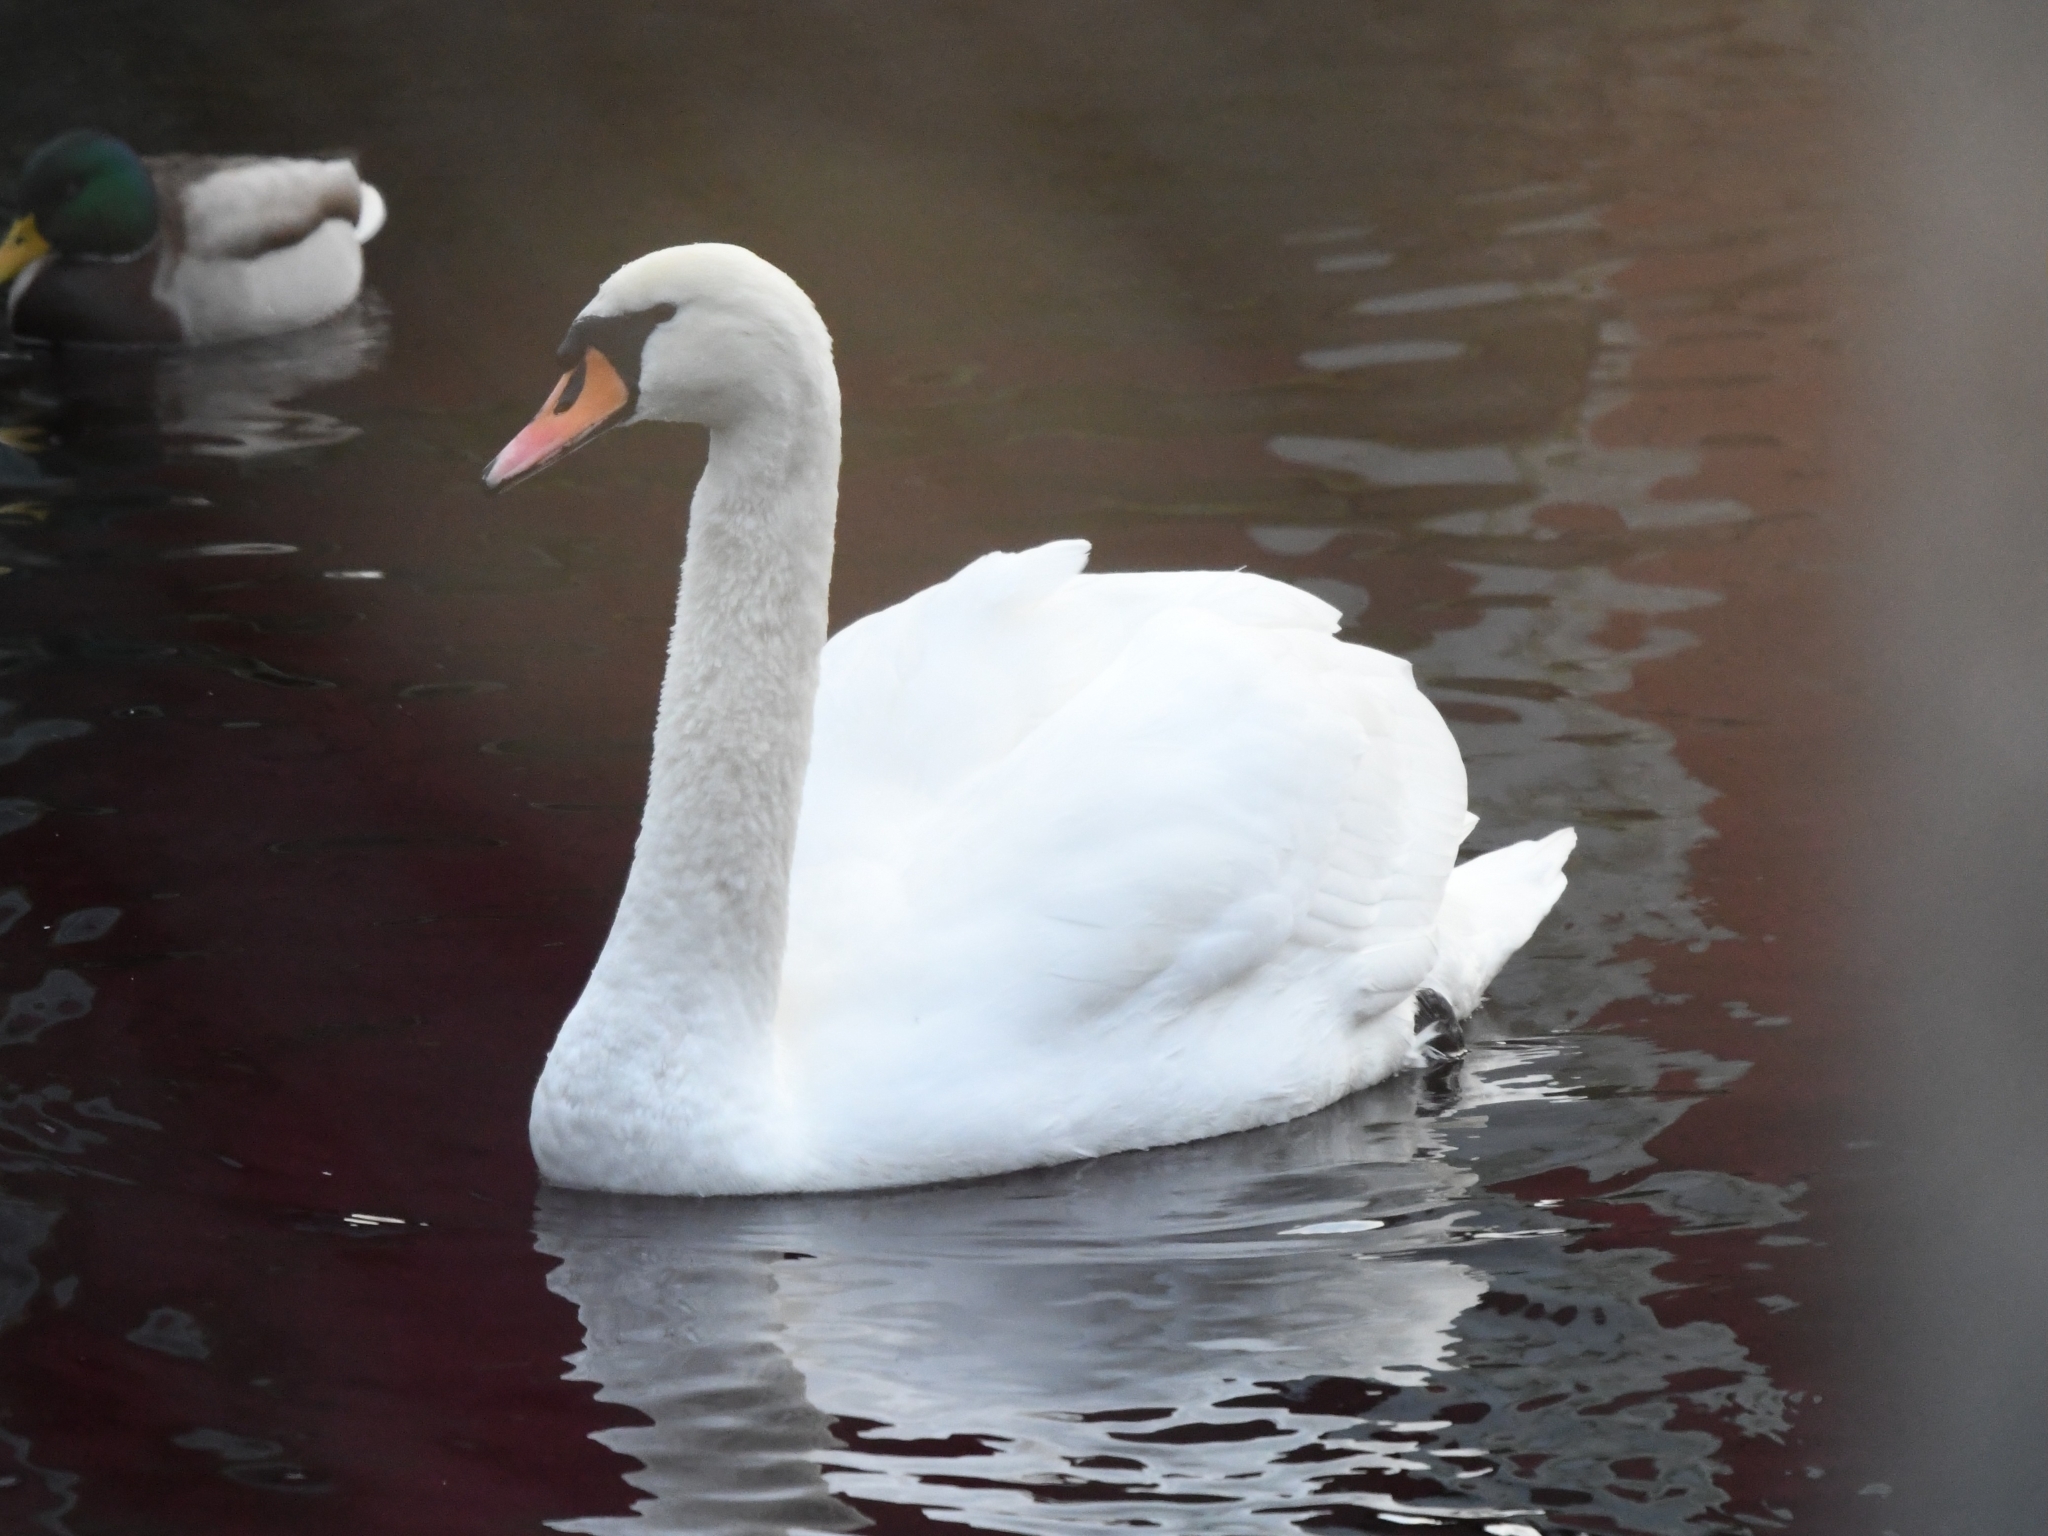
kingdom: Animalia
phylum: Chordata
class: Aves
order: Anseriformes
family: Anatidae
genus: Cygnus
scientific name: Cygnus olor
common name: Mute swan
